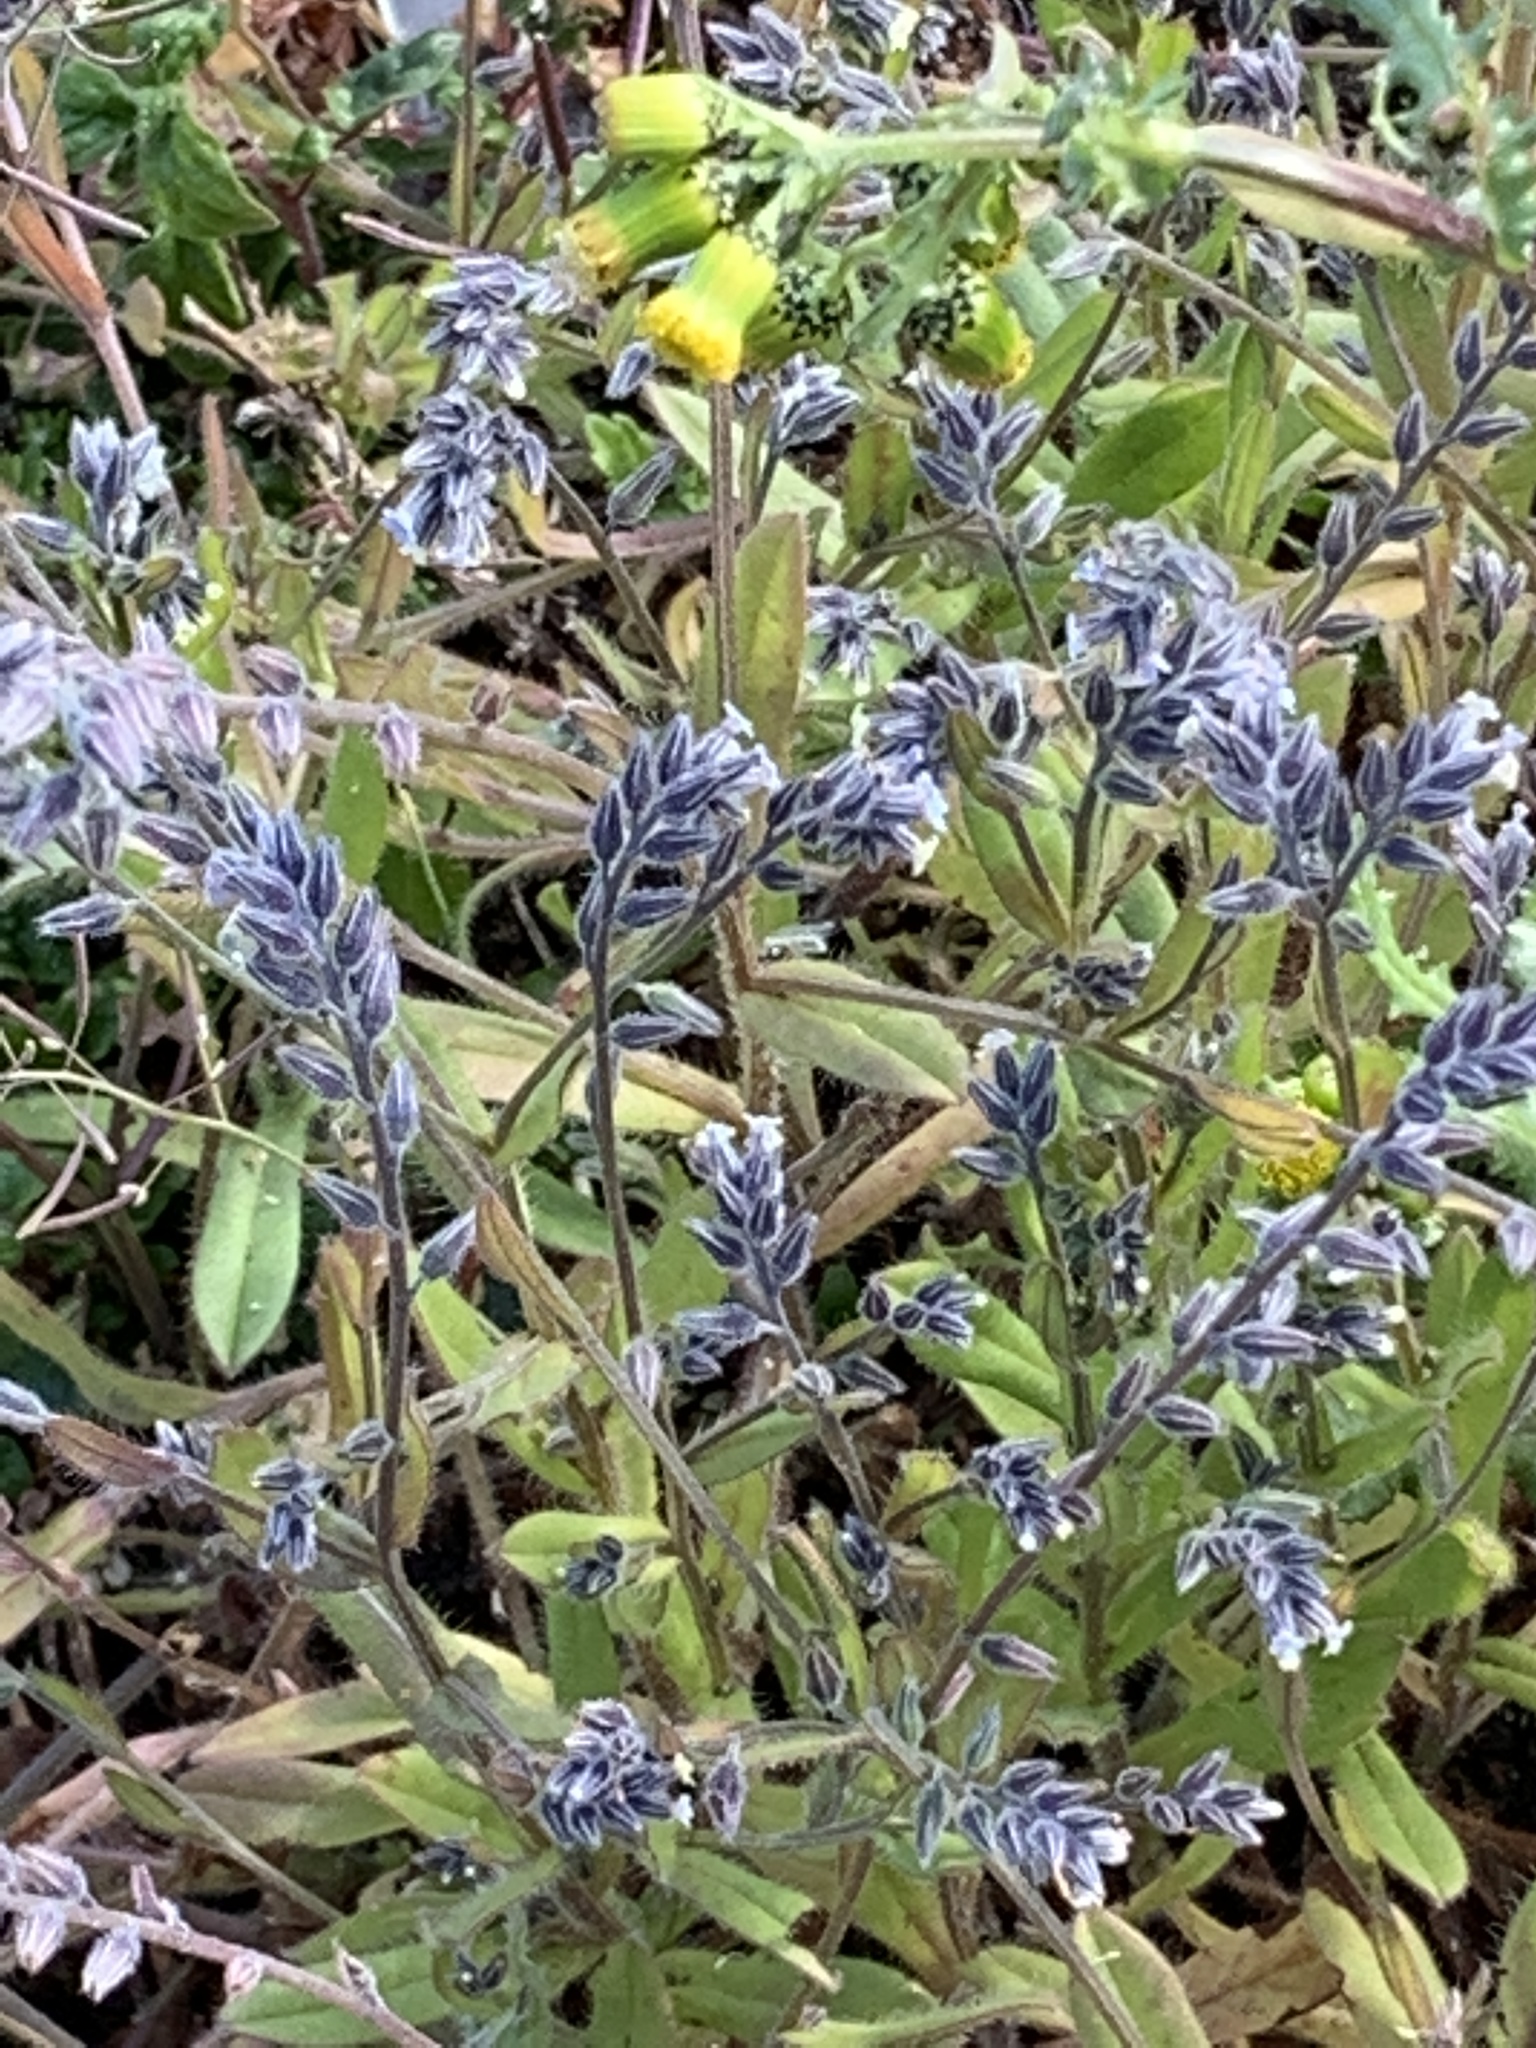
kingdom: Plantae
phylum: Tracheophyta
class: Magnoliopsida
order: Boraginales
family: Boraginaceae
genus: Myosotis
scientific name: Myosotis discolor
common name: Changing forget-me-not
